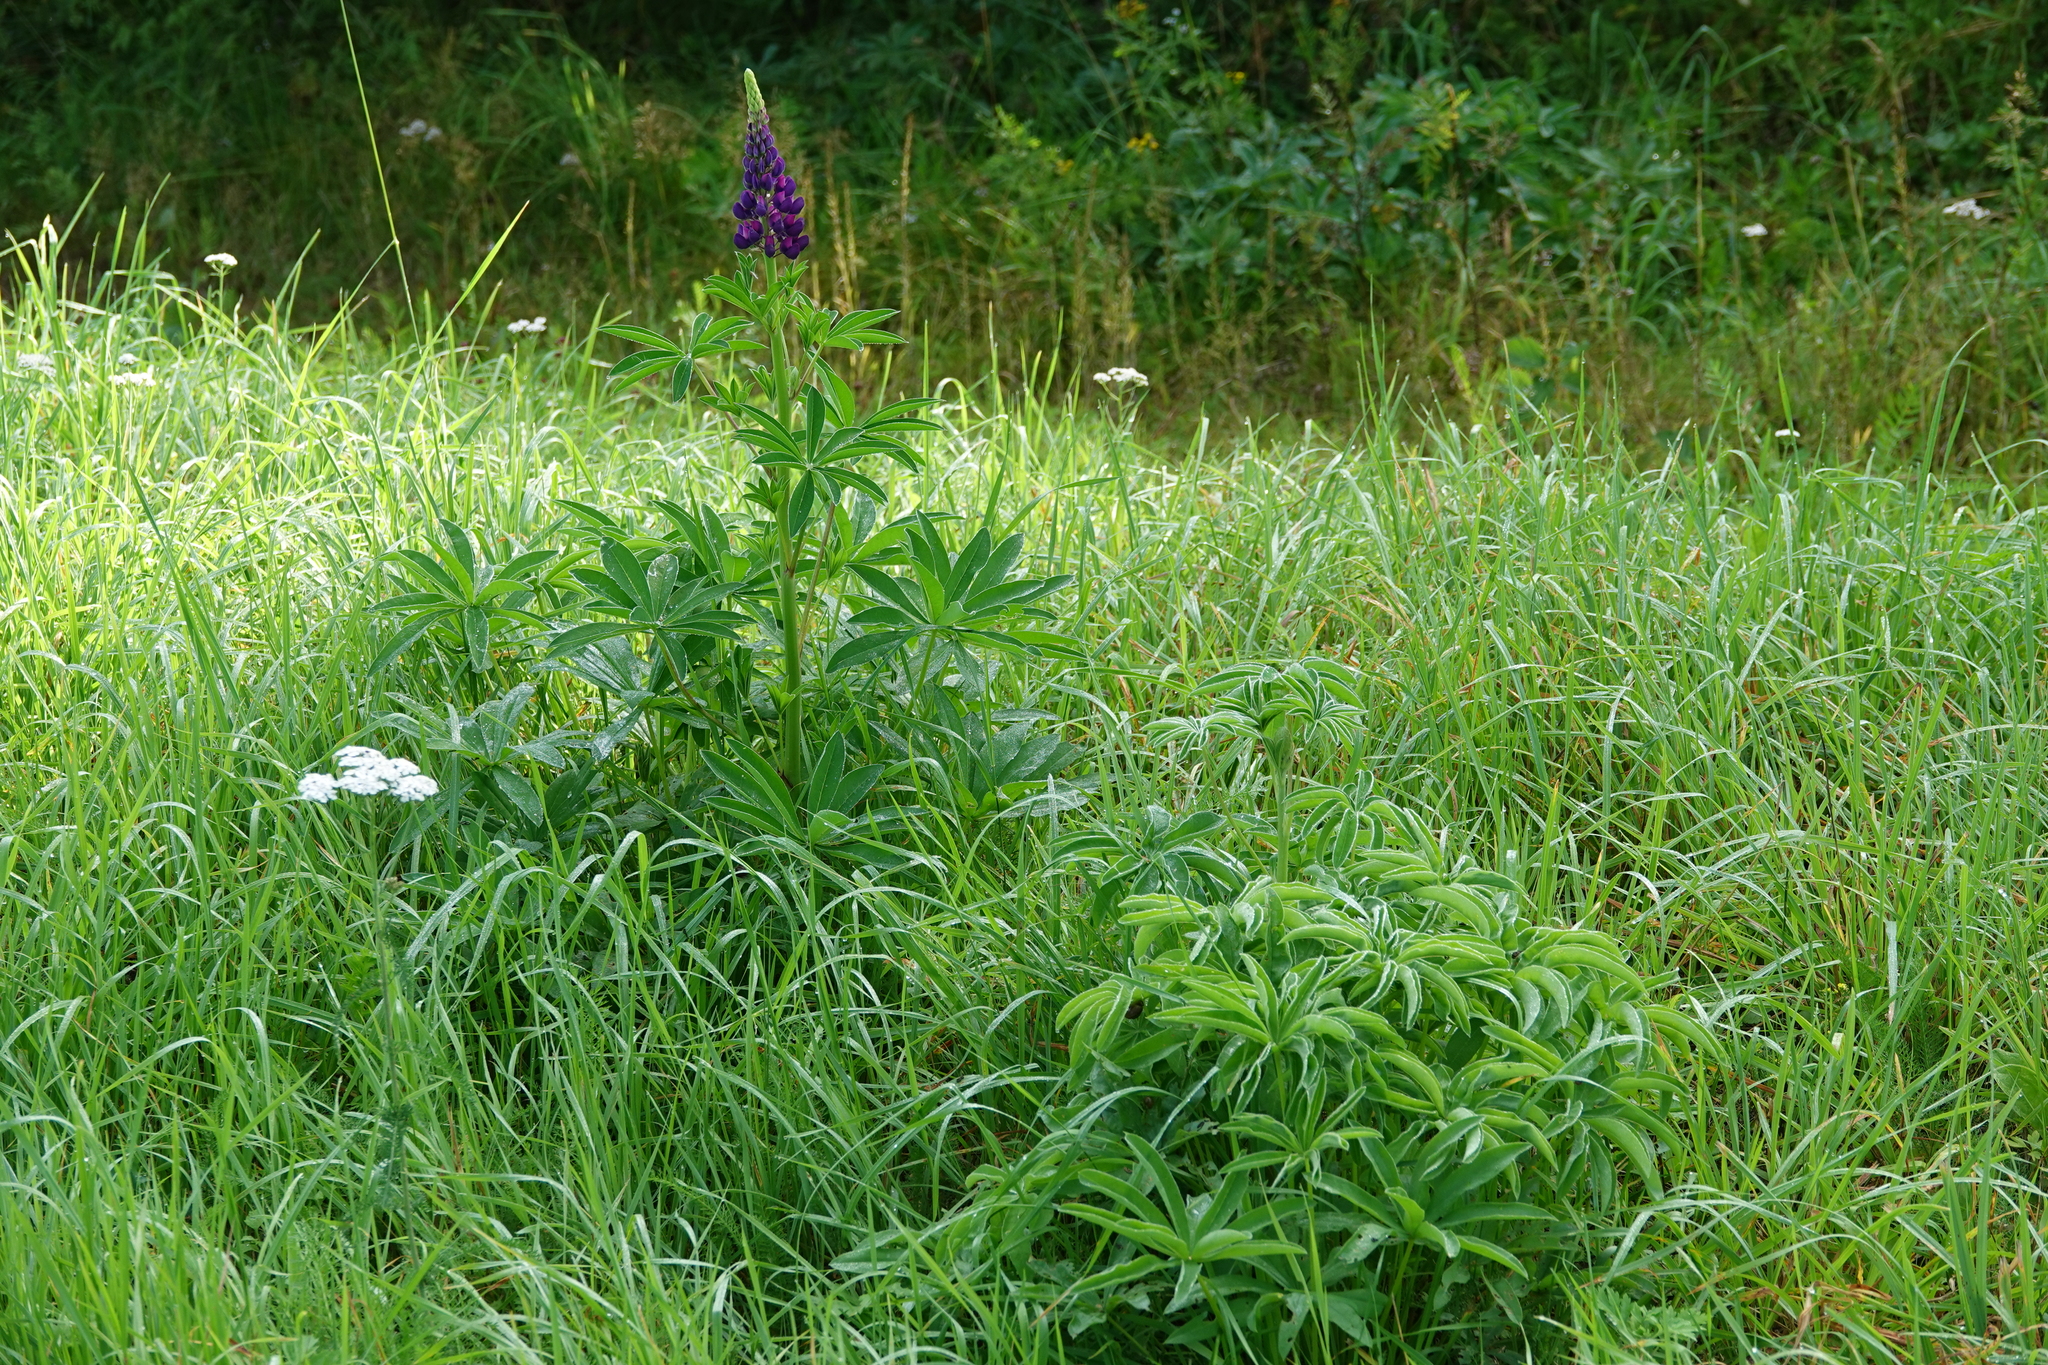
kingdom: Plantae
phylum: Tracheophyta
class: Magnoliopsida
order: Fabales
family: Fabaceae
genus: Lupinus
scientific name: Lupinus polyphyllus
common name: Garden lupin
